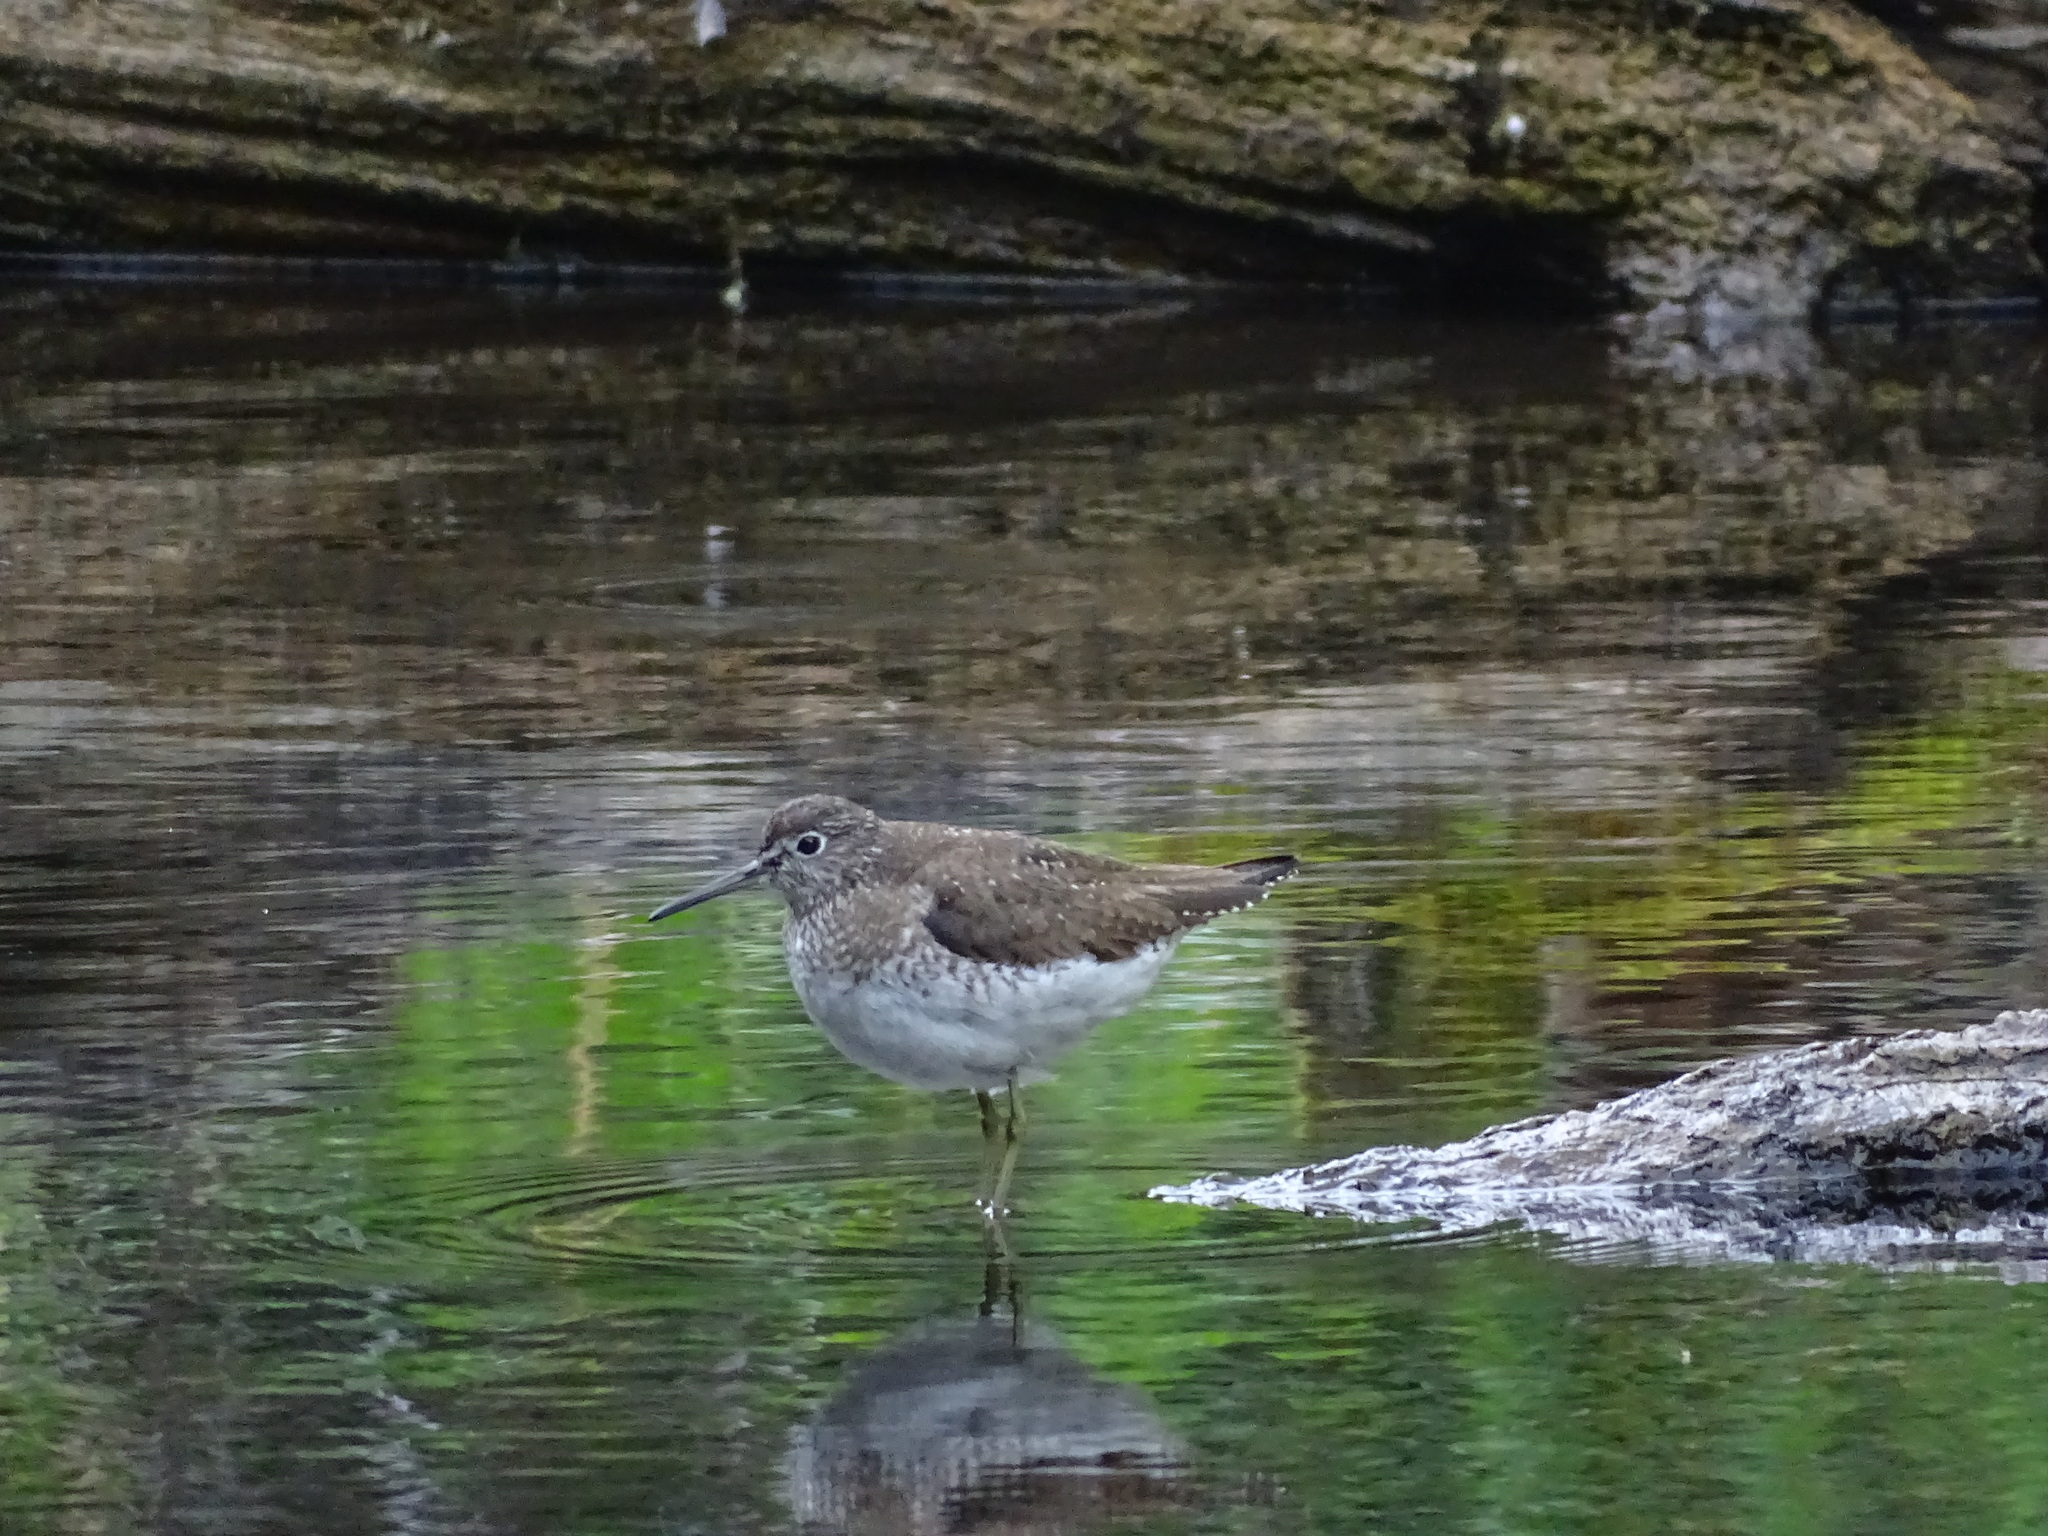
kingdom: Animalia
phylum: Chordata
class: Aves
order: Charadriiformes
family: Scolopacidae
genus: Tringa
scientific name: Tringa solitaria
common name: Solitary sandpiper
